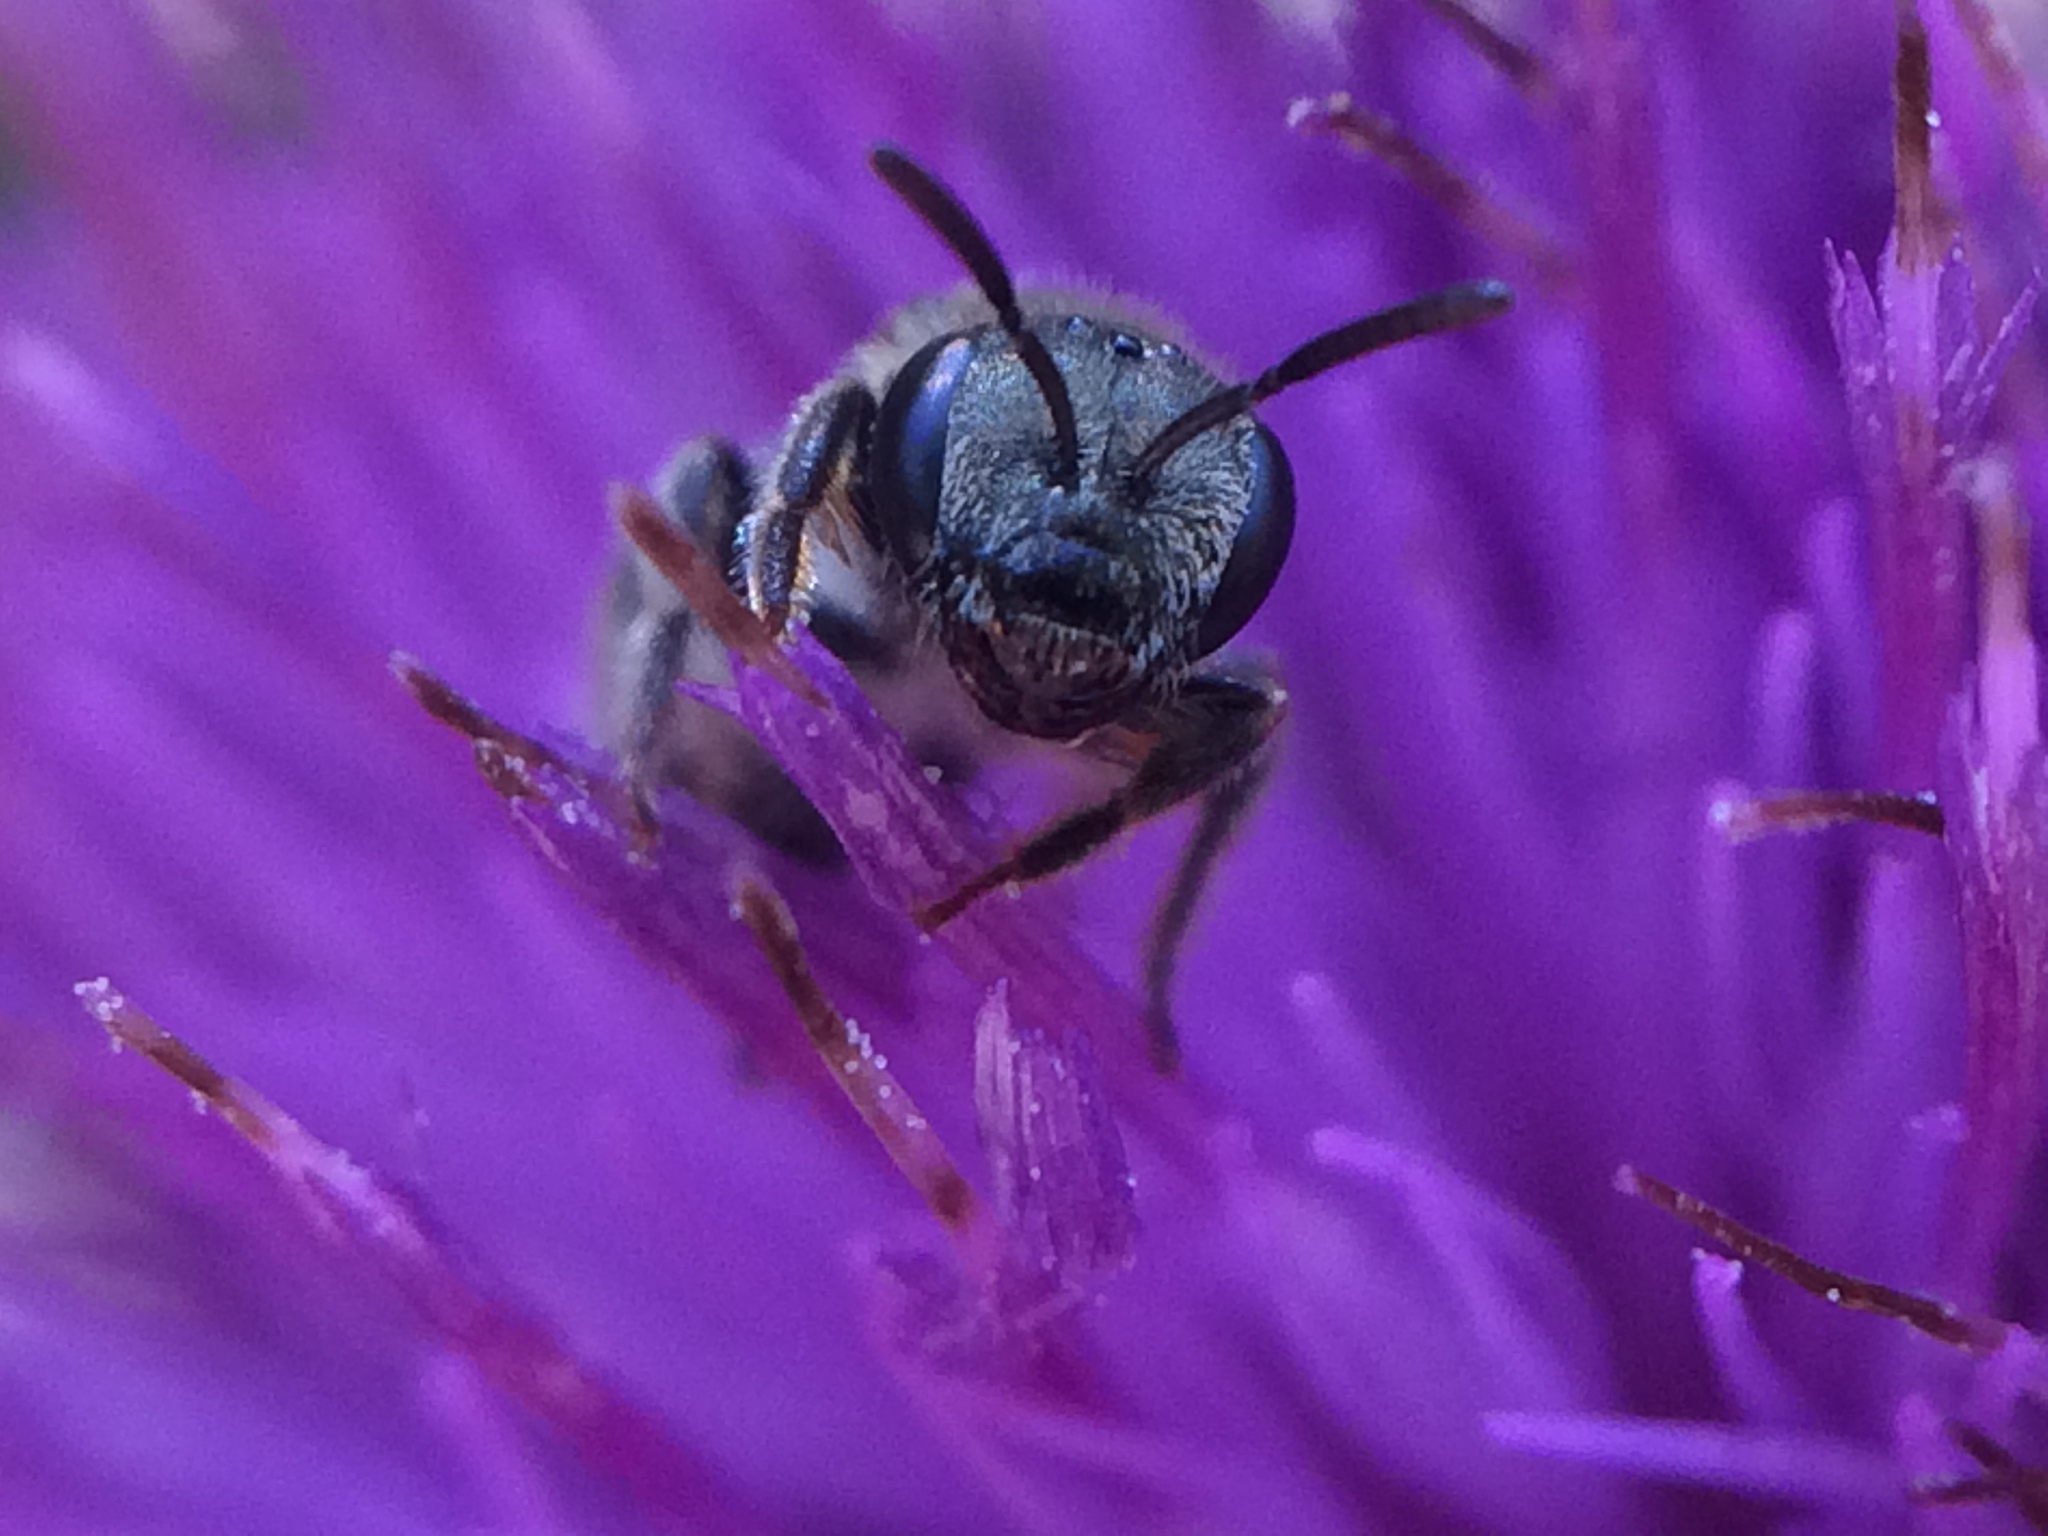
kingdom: Animalia
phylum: Arthropoda
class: Insecta
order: Hymenoptera
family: Halictidae
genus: Halictus
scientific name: Halictus tripartitus
